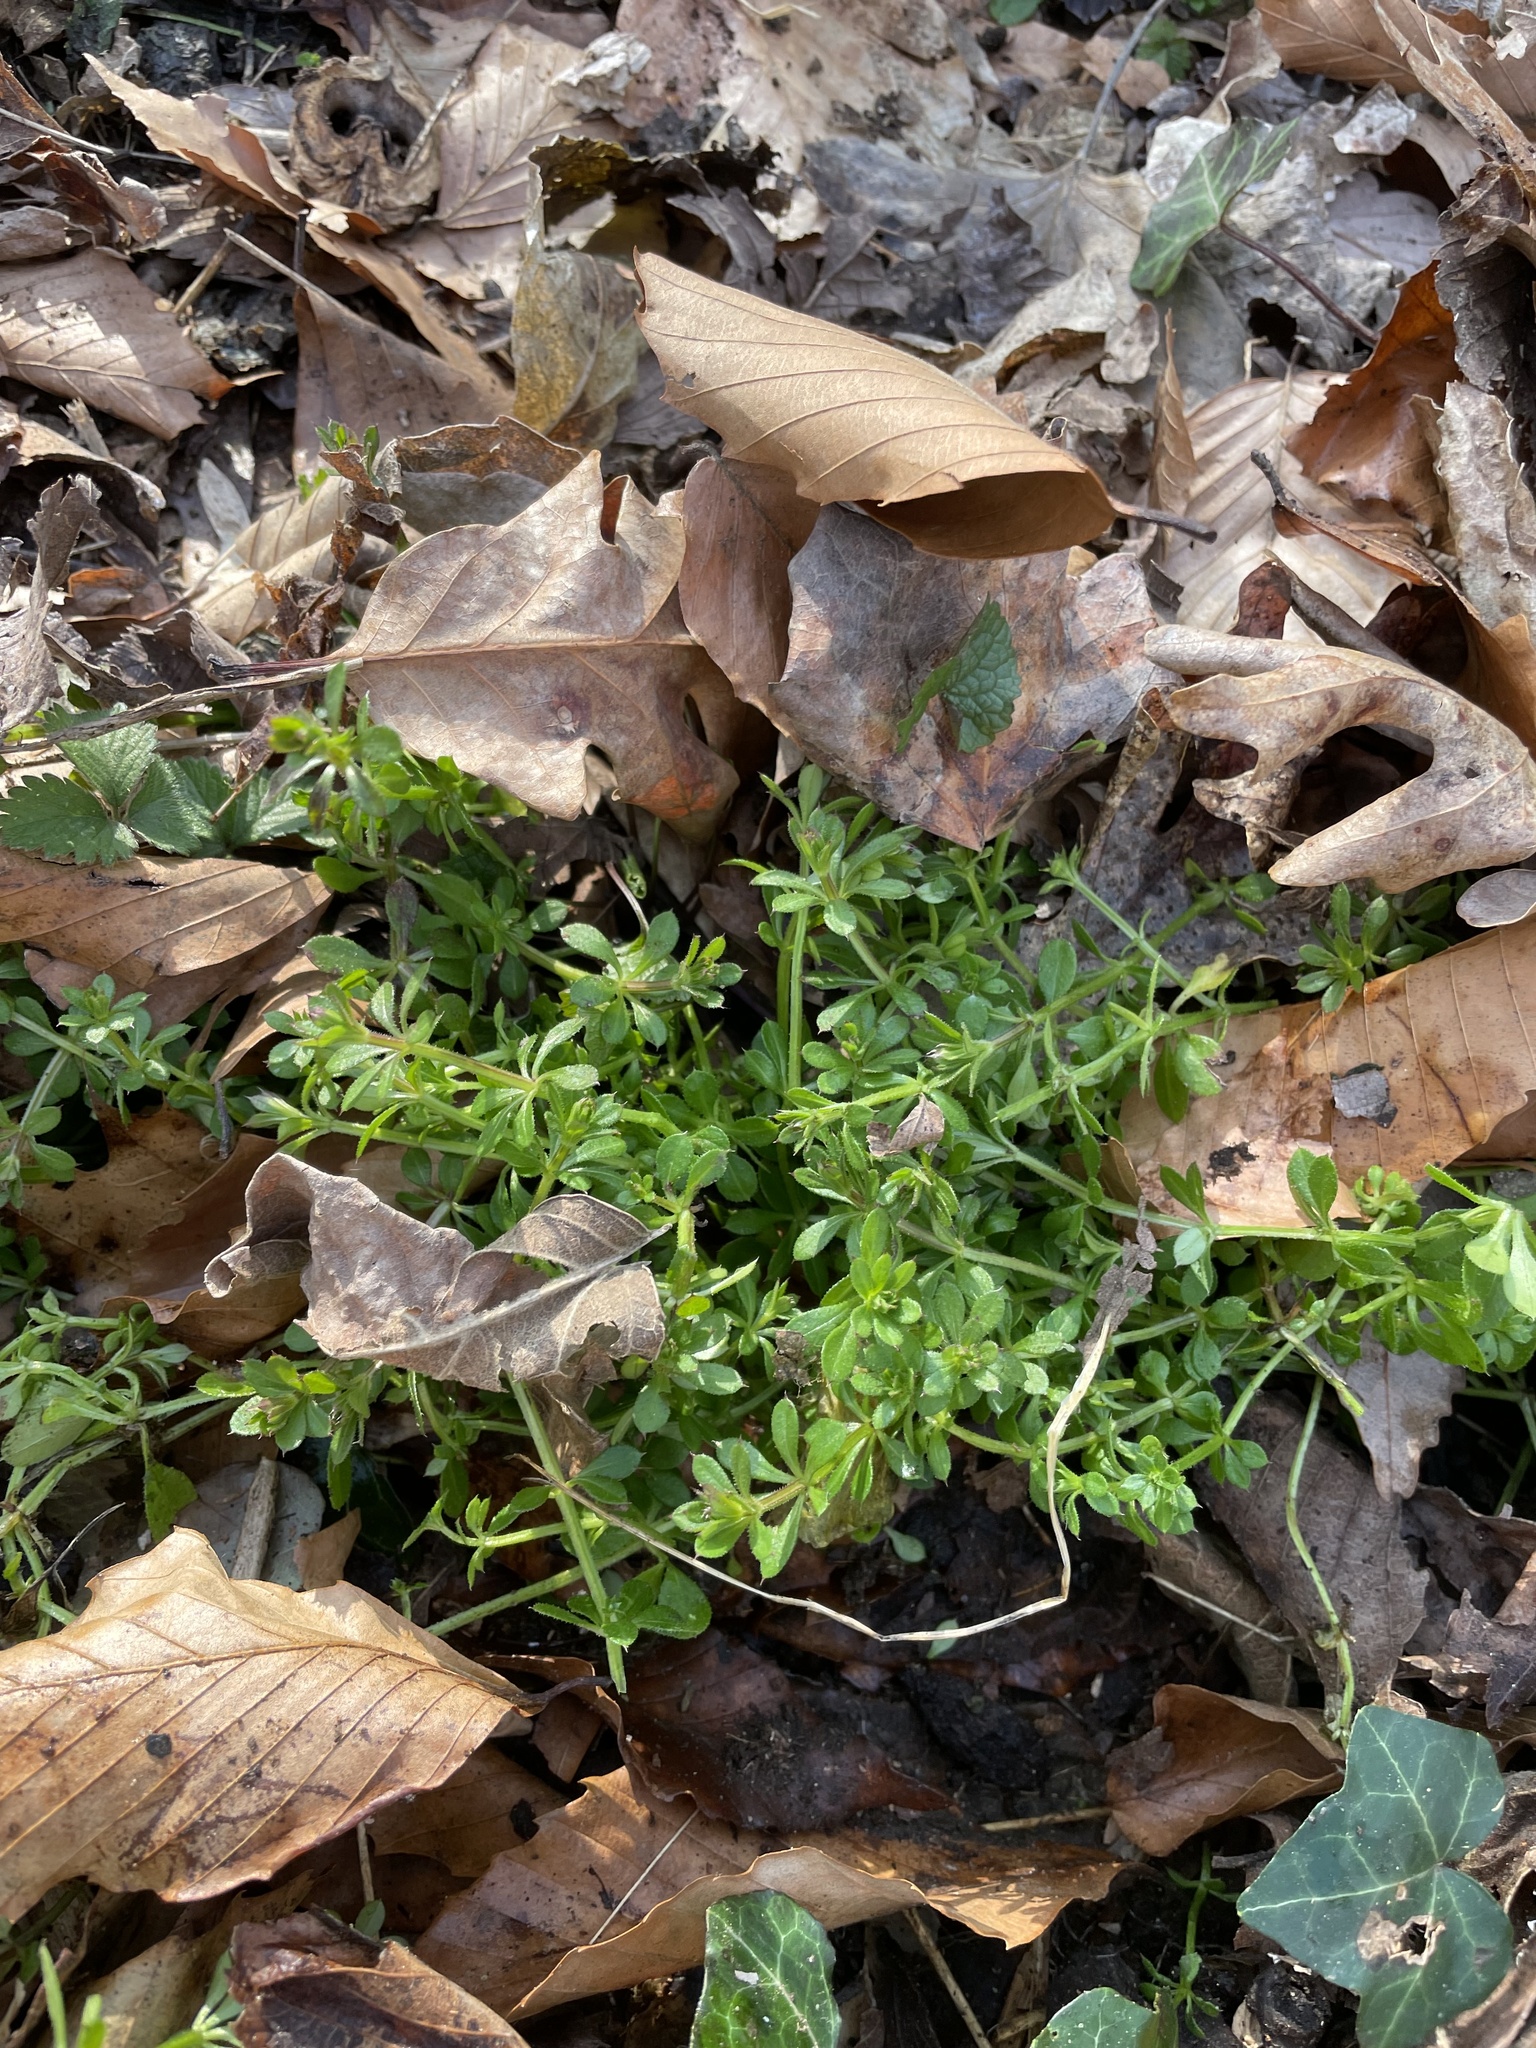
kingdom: Plantae
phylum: Tracheophyta
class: Magnoliopsida
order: Gentianales
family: Rubiaceae
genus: Galium
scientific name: Galium aparine
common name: Cleavers
